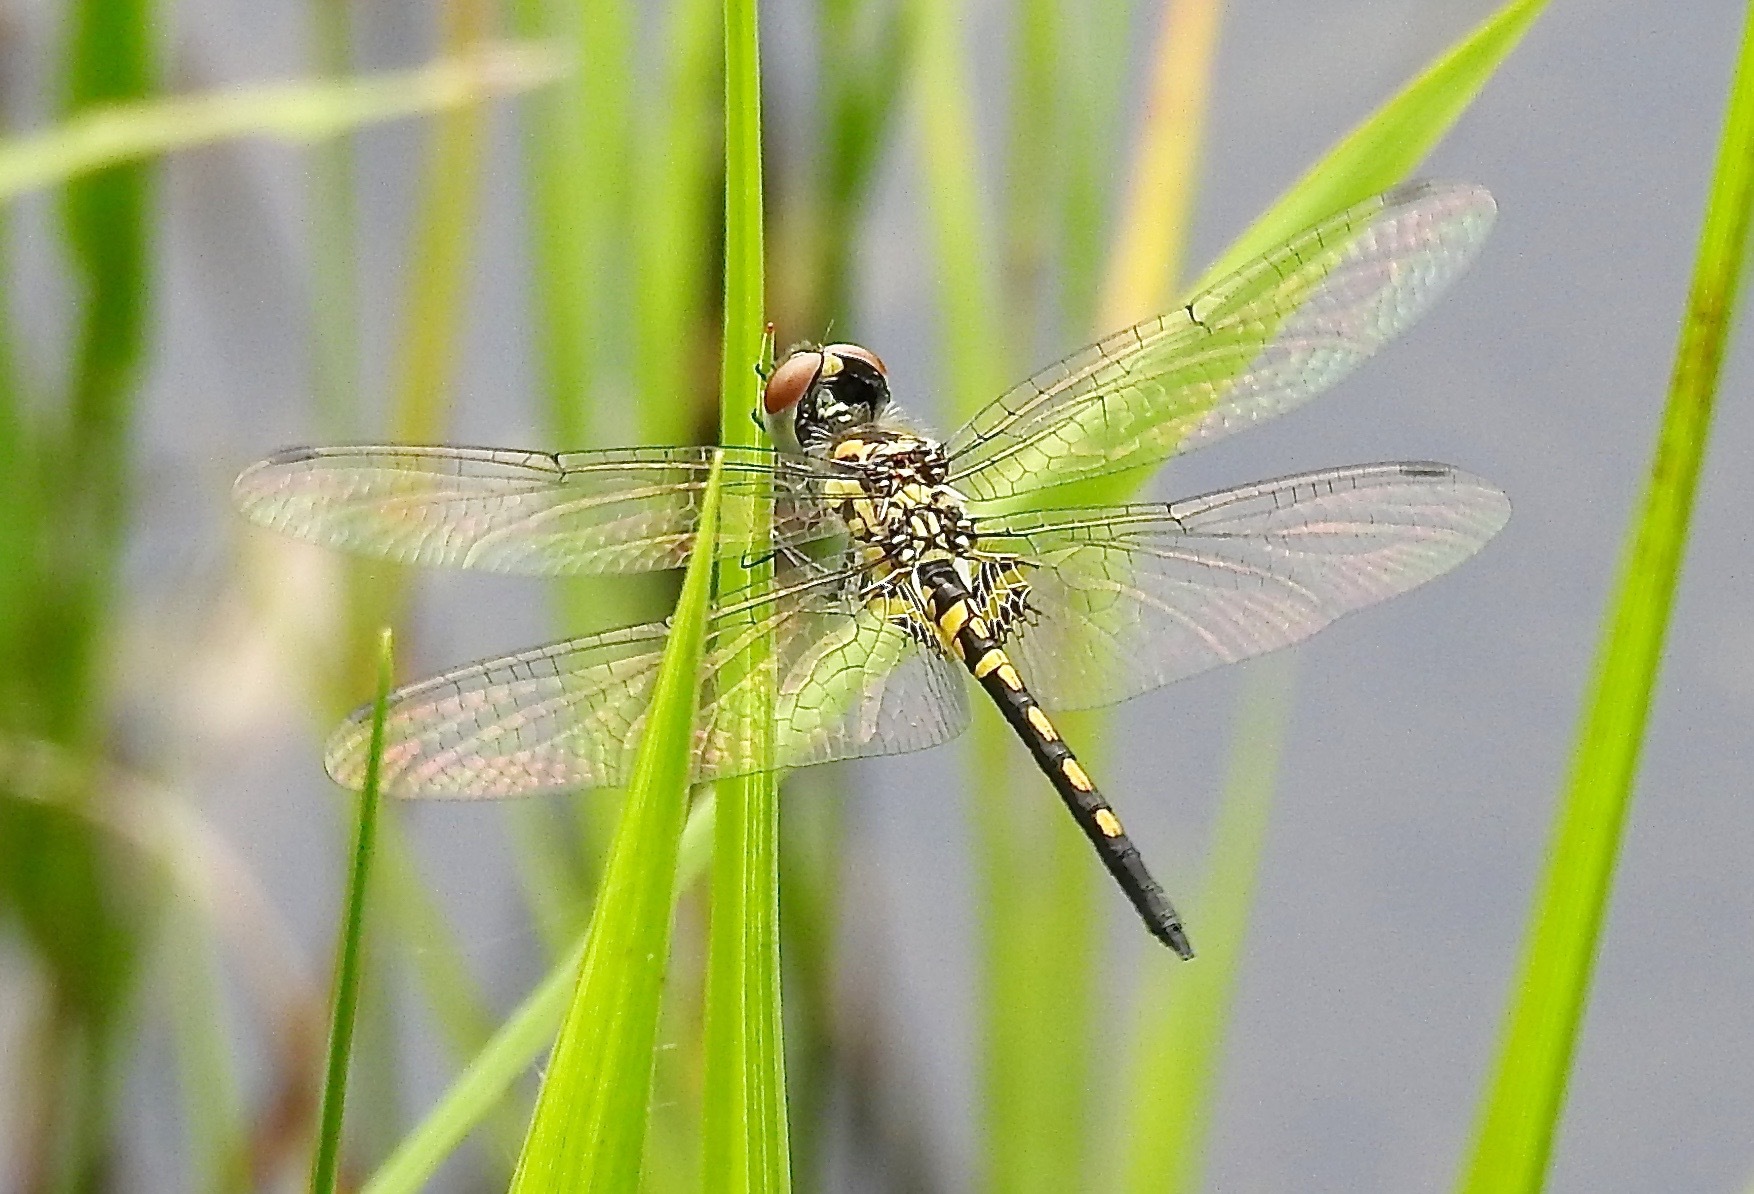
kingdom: Animalia
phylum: Arthropoda
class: Insecta
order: Odonata
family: Libellulidae
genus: Celithemis
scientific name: Celithemis ornata
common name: Ornate pennant
